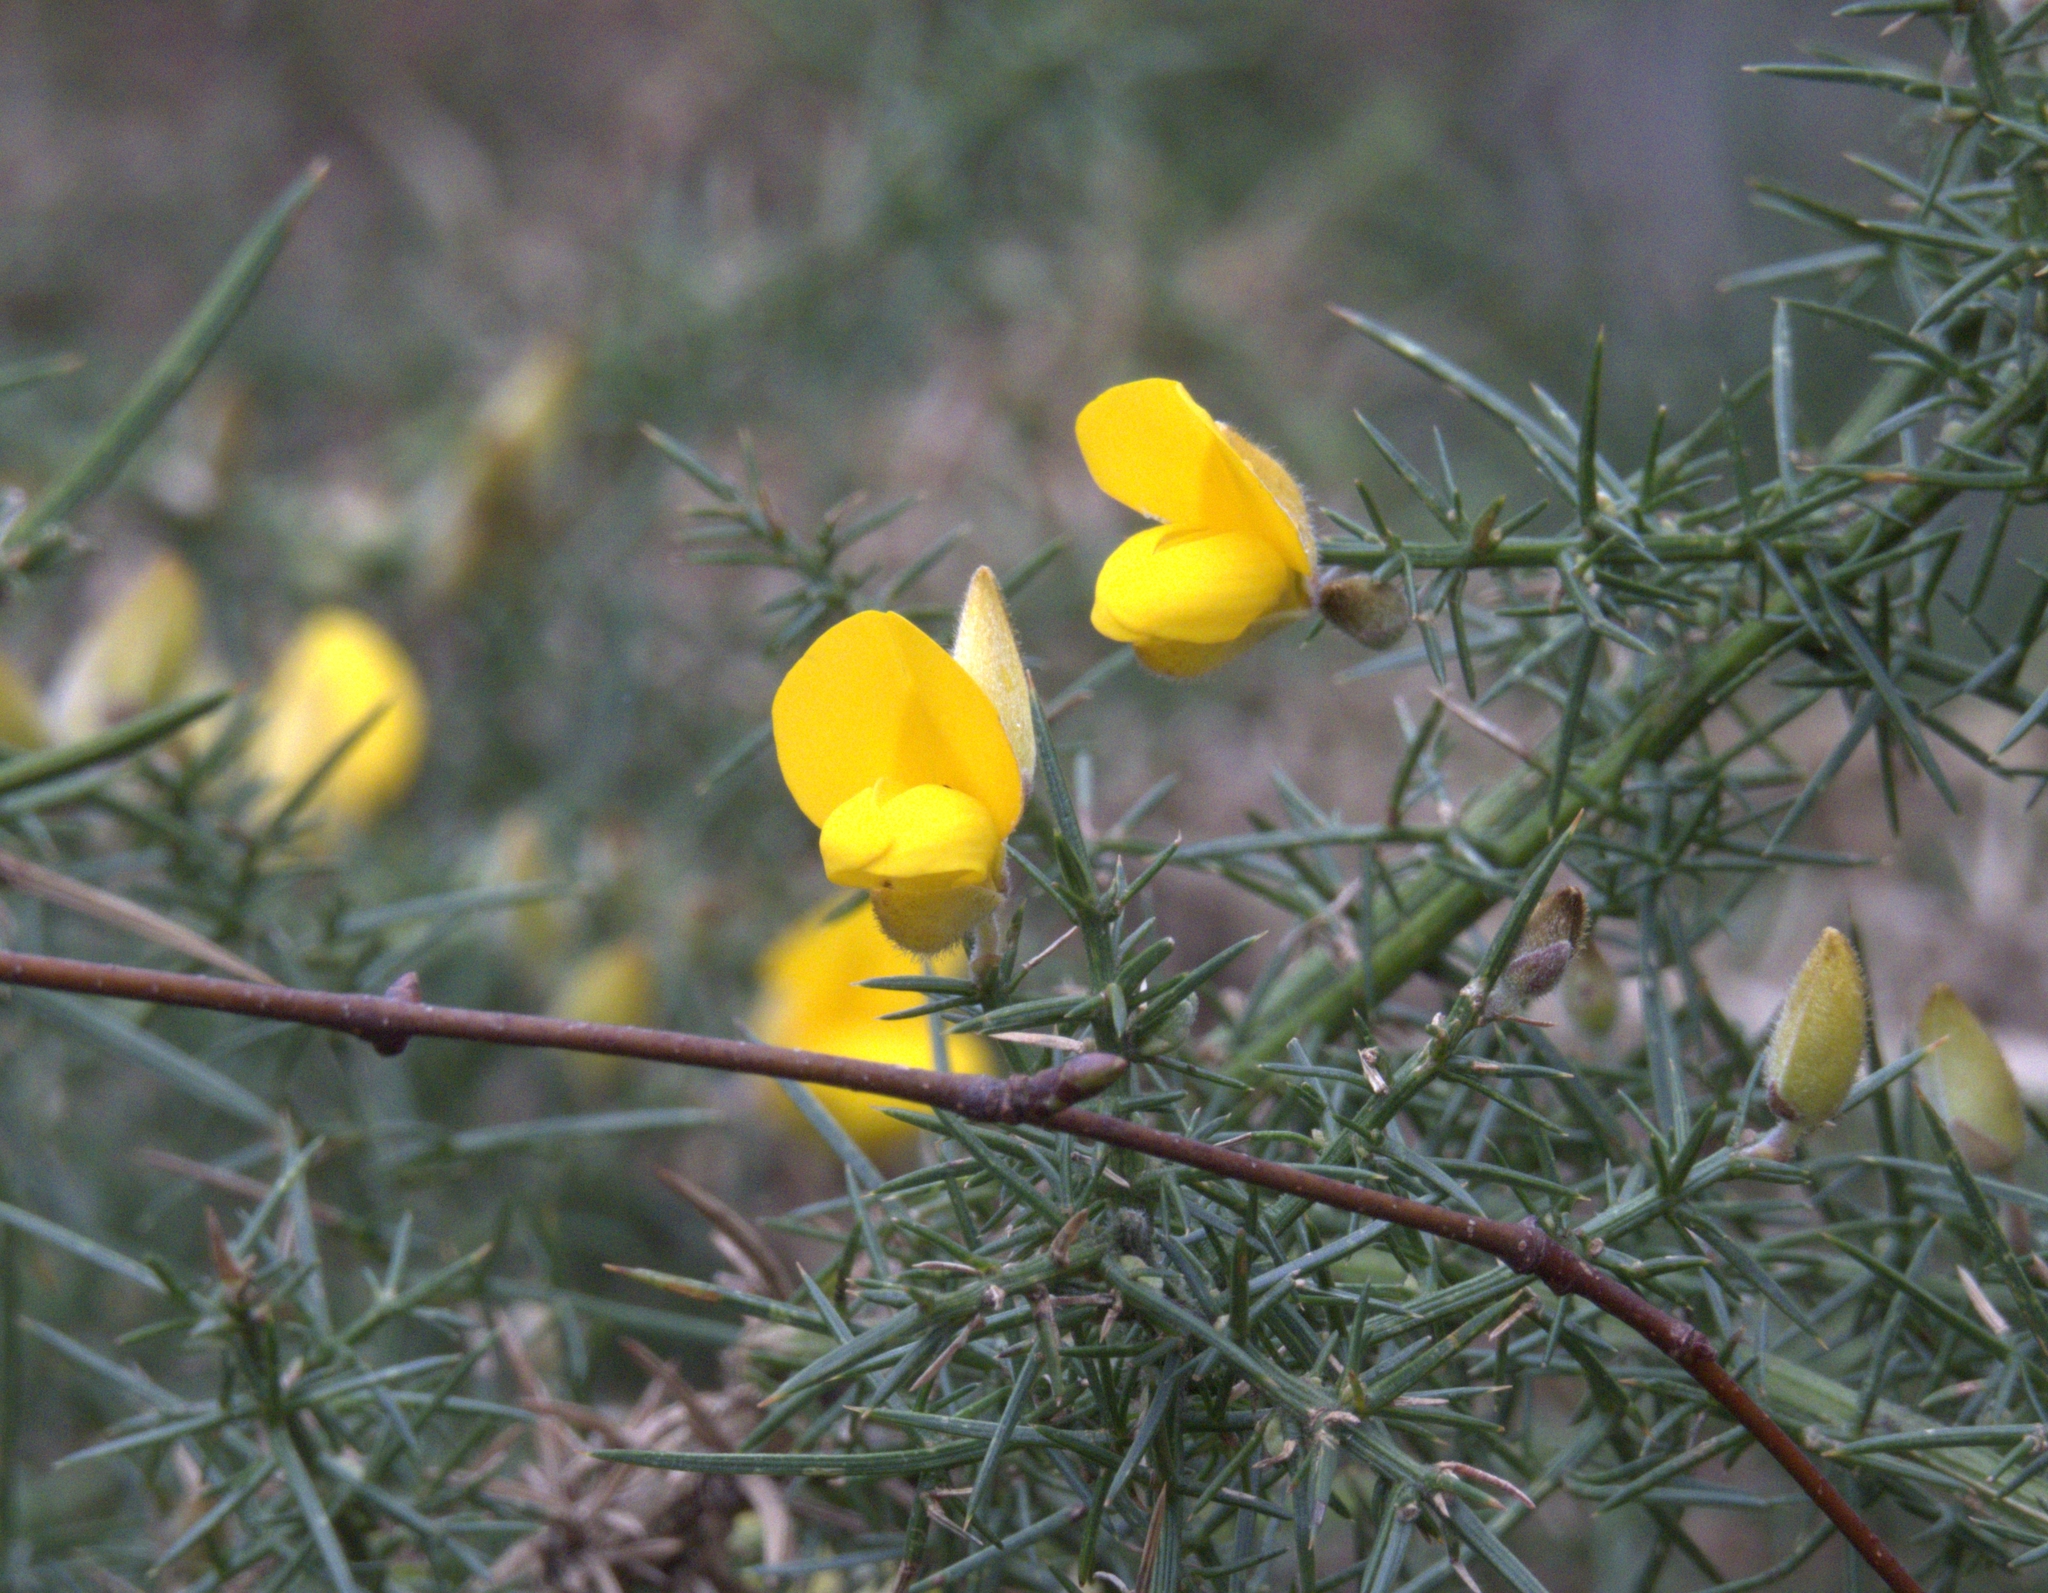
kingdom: Plantae
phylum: Tracheophyta
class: Magnoliopsida
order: Fabales
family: Fabaceae
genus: Ulex
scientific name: Ulex europaeus
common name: Common gorse
